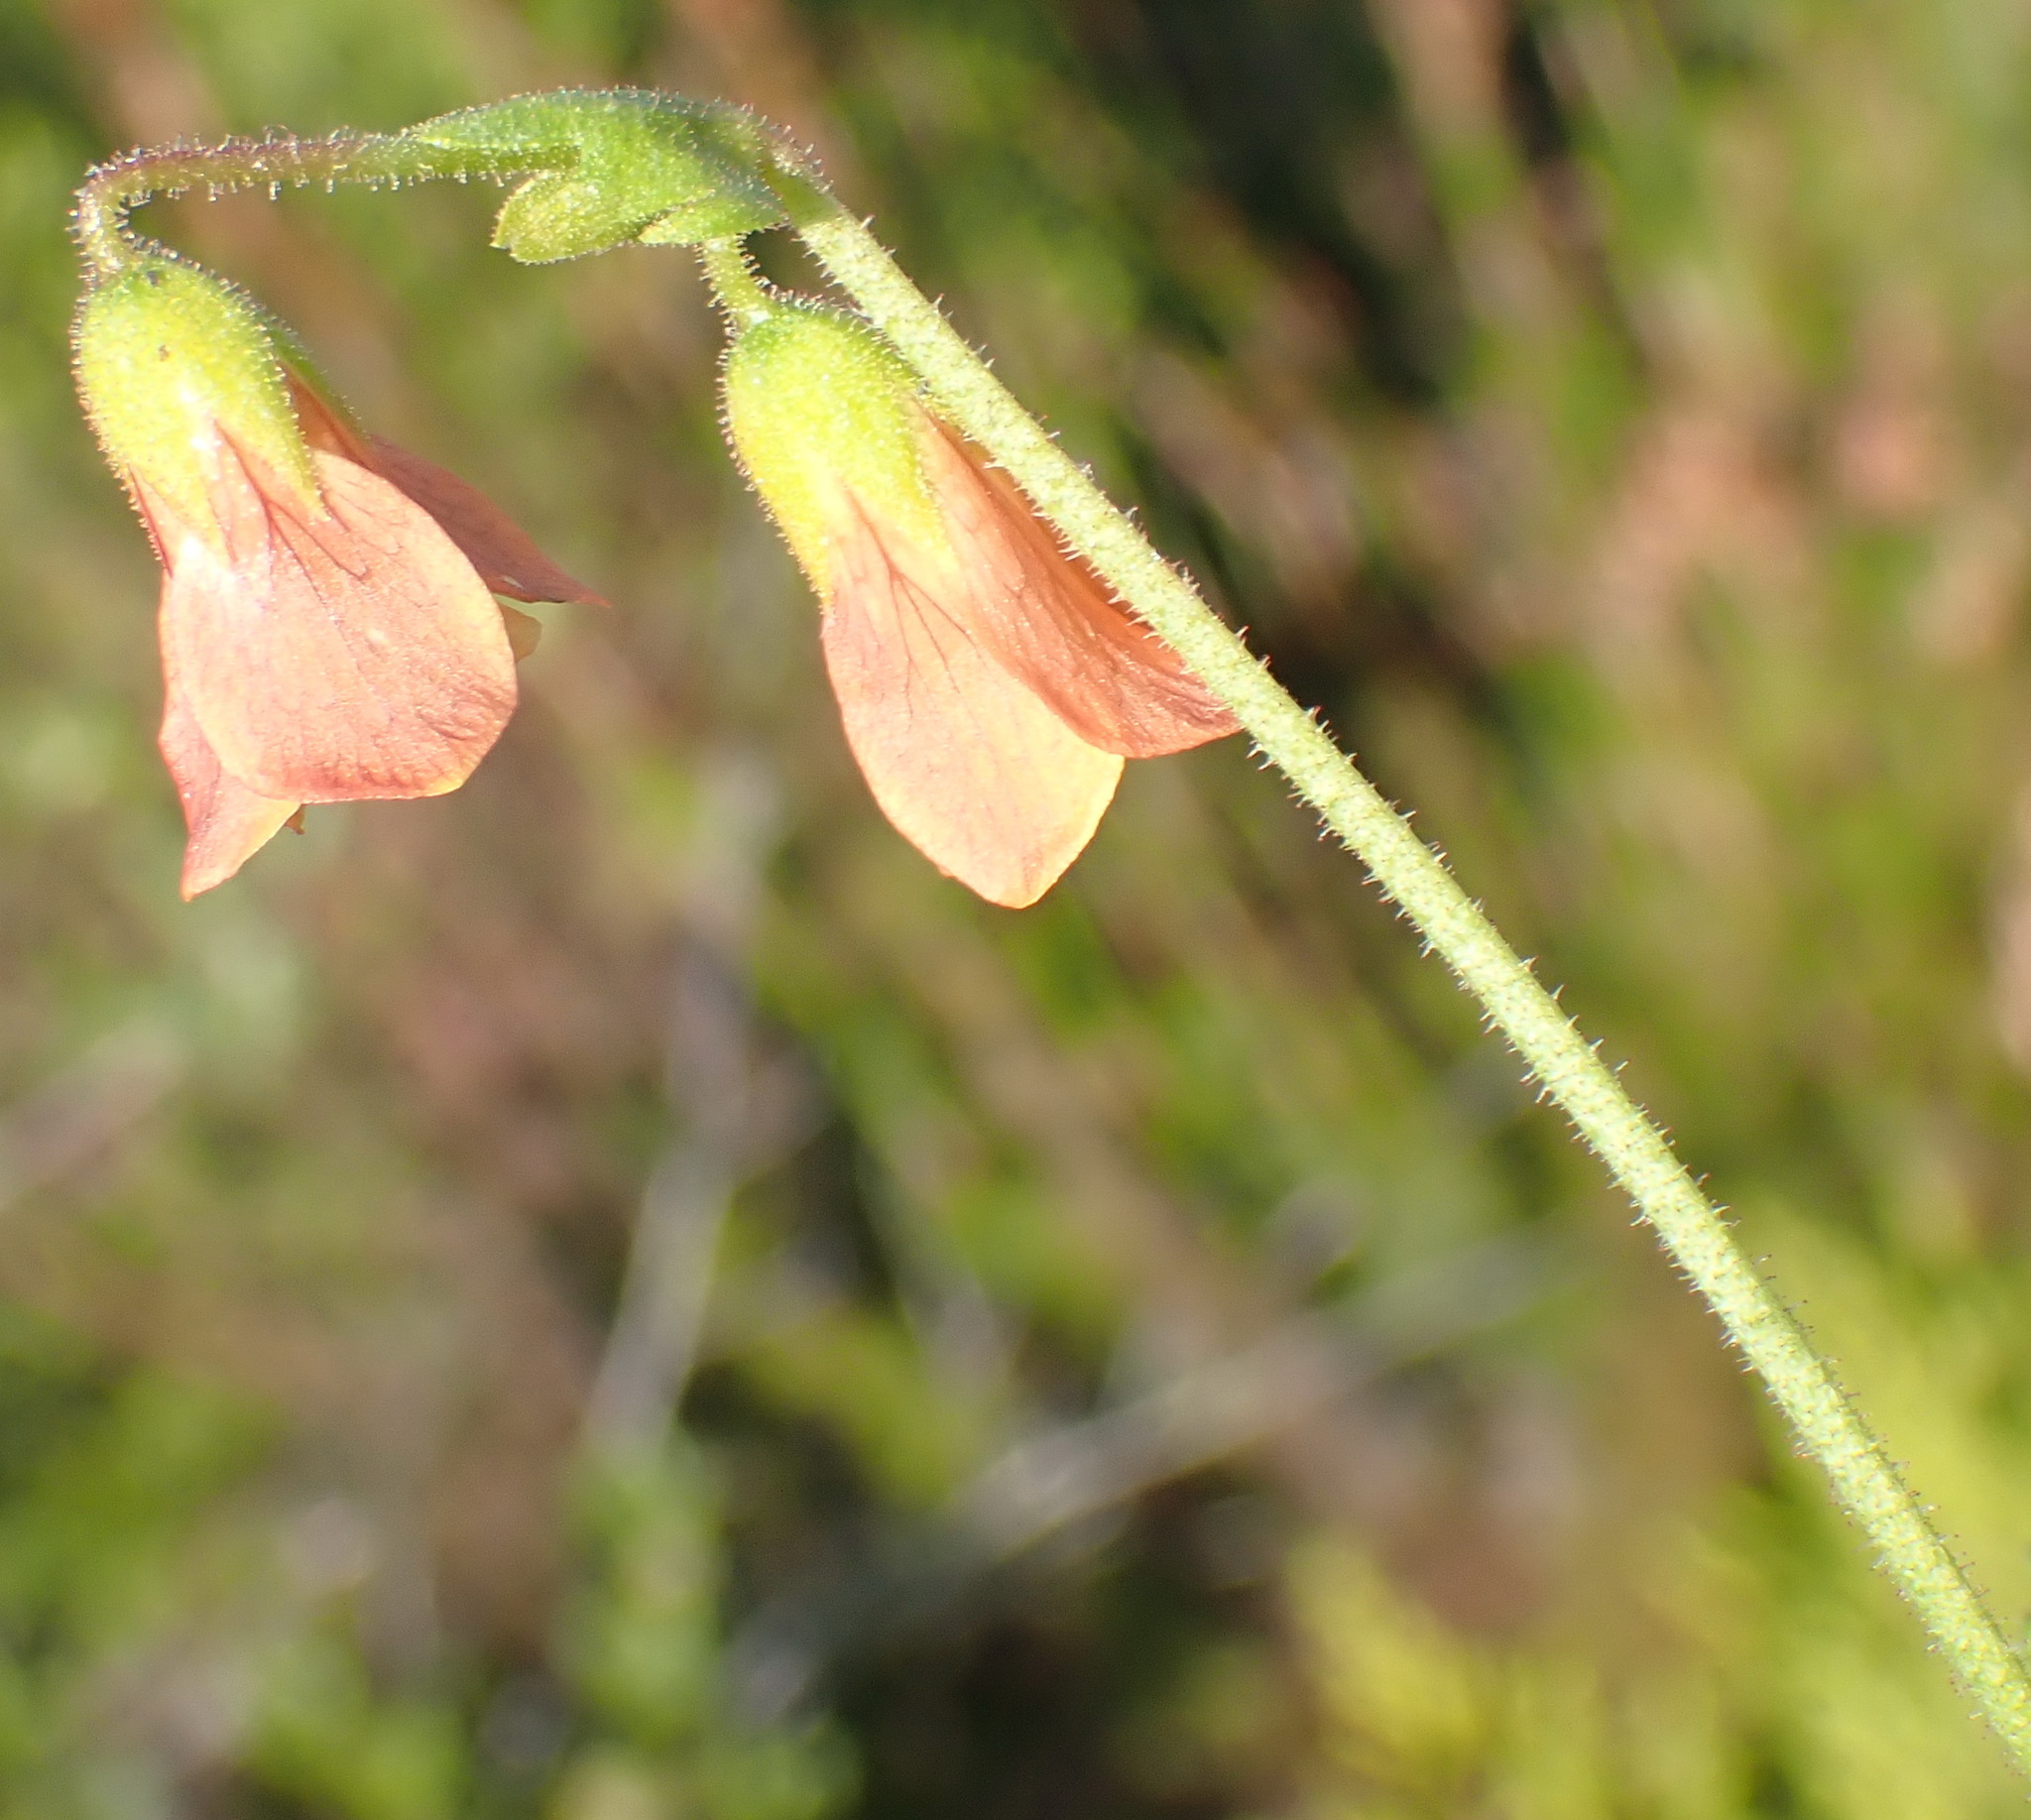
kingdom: Plantae
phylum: Tracheophyta
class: Magnoliopsida
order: Malvales
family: Malvaceae
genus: Hermannia
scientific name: Hermannia diffusa
